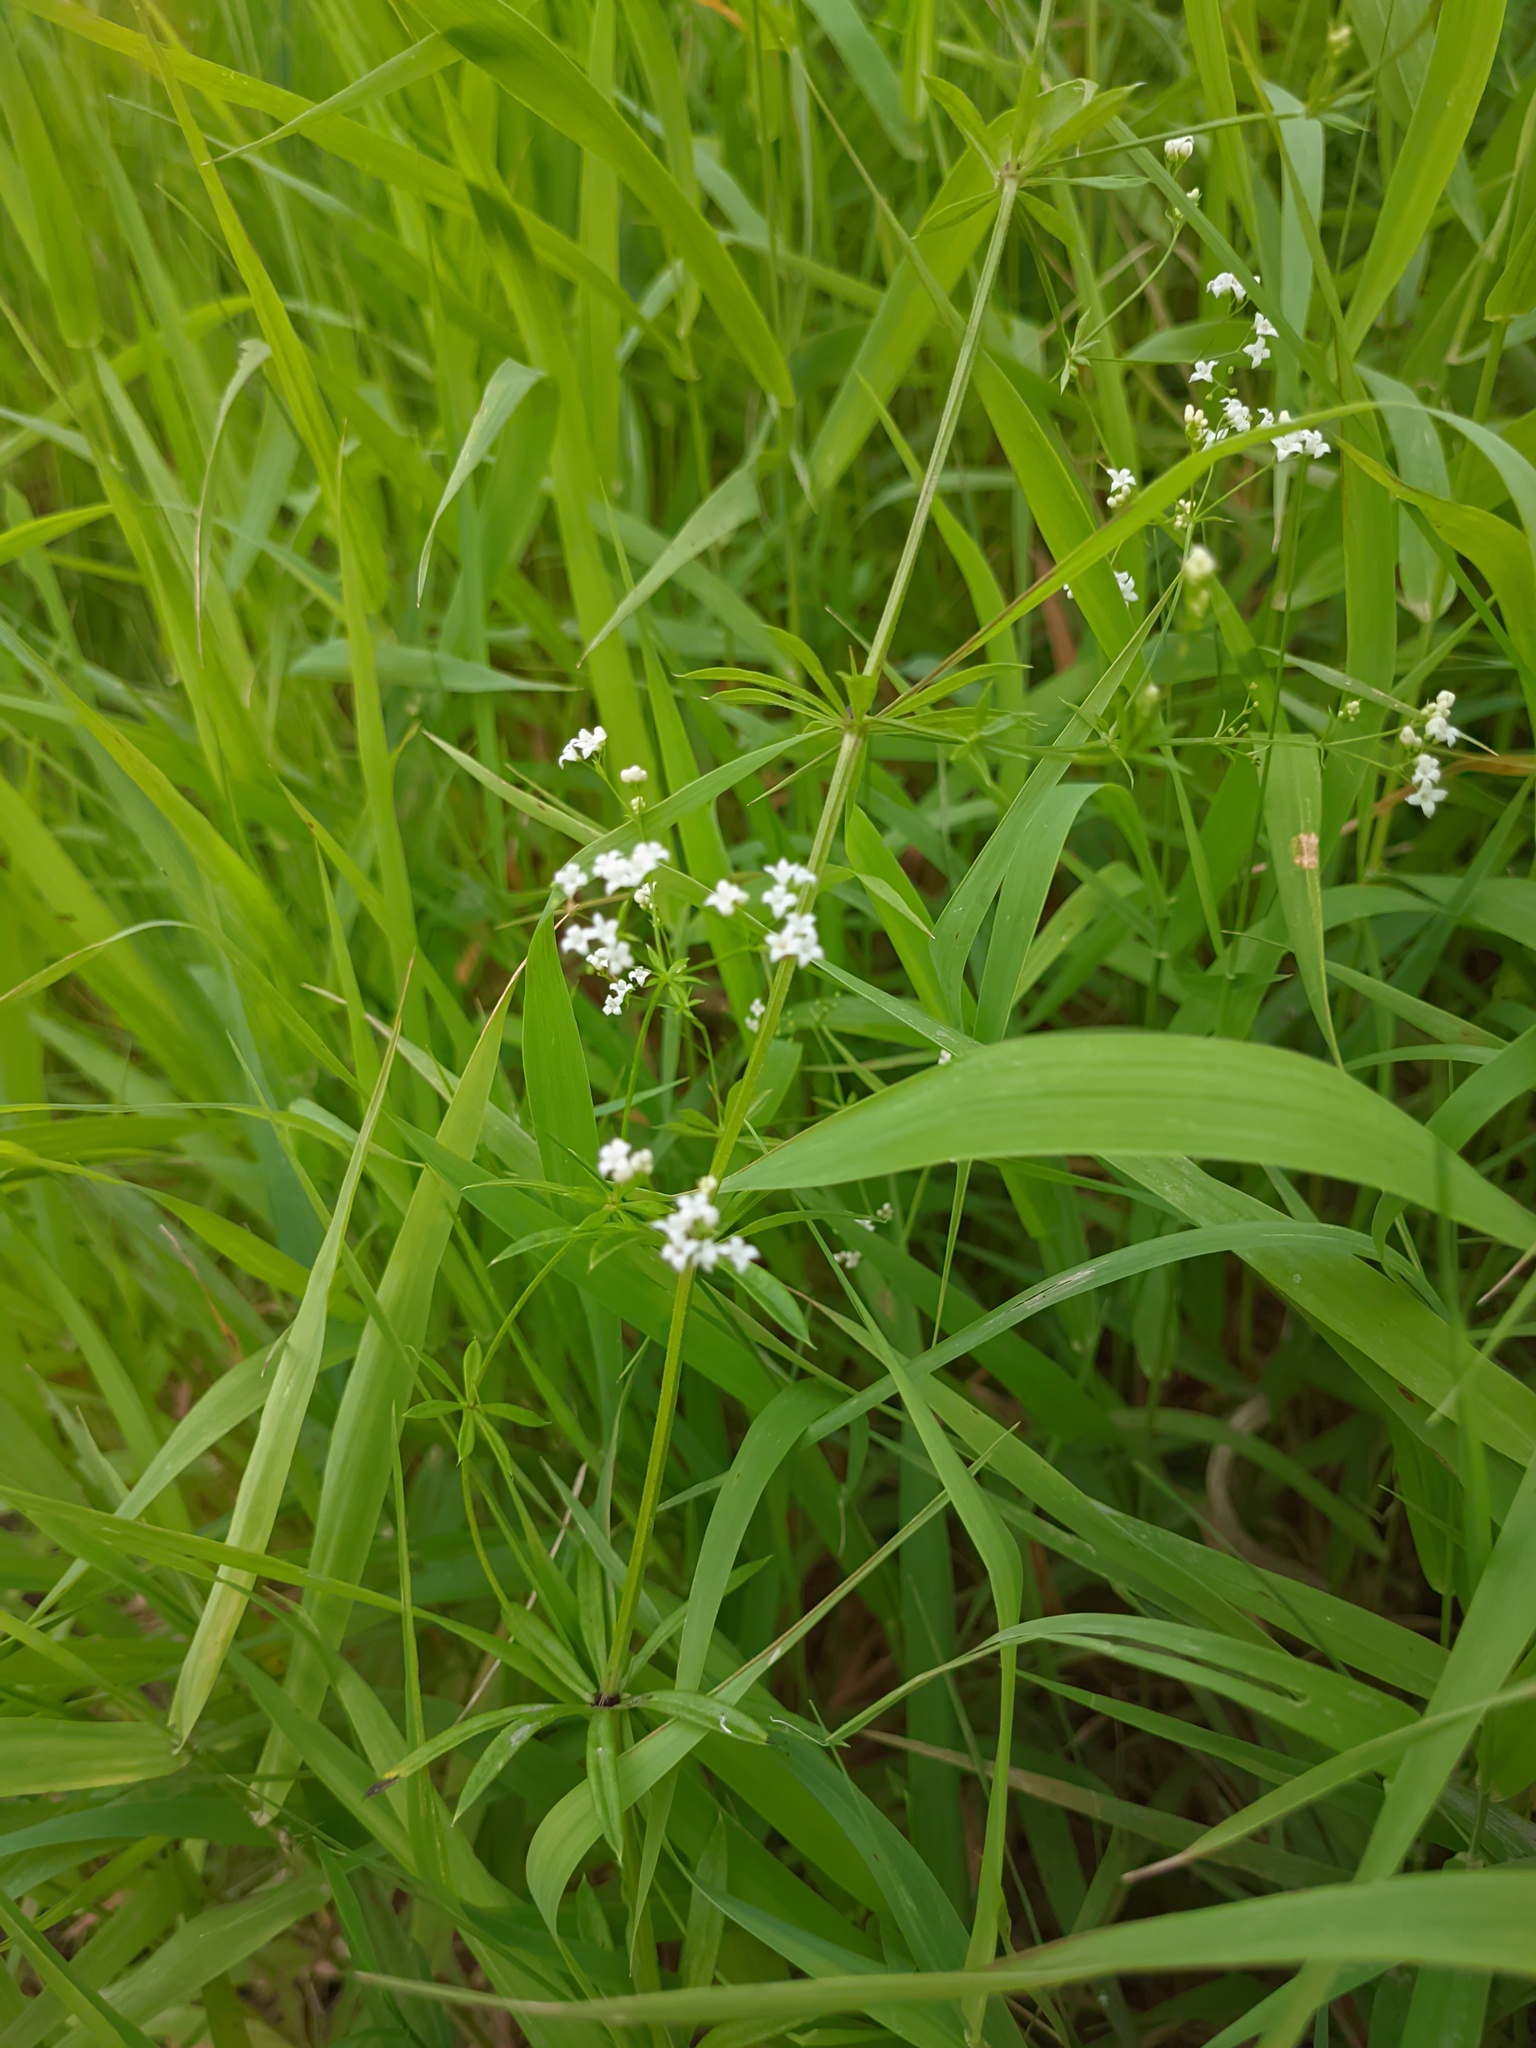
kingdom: Plantae
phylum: Tracheophyta
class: Magnoliopsida
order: Gentianales
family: Rubiaceae
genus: Galium
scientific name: Galium rivale
